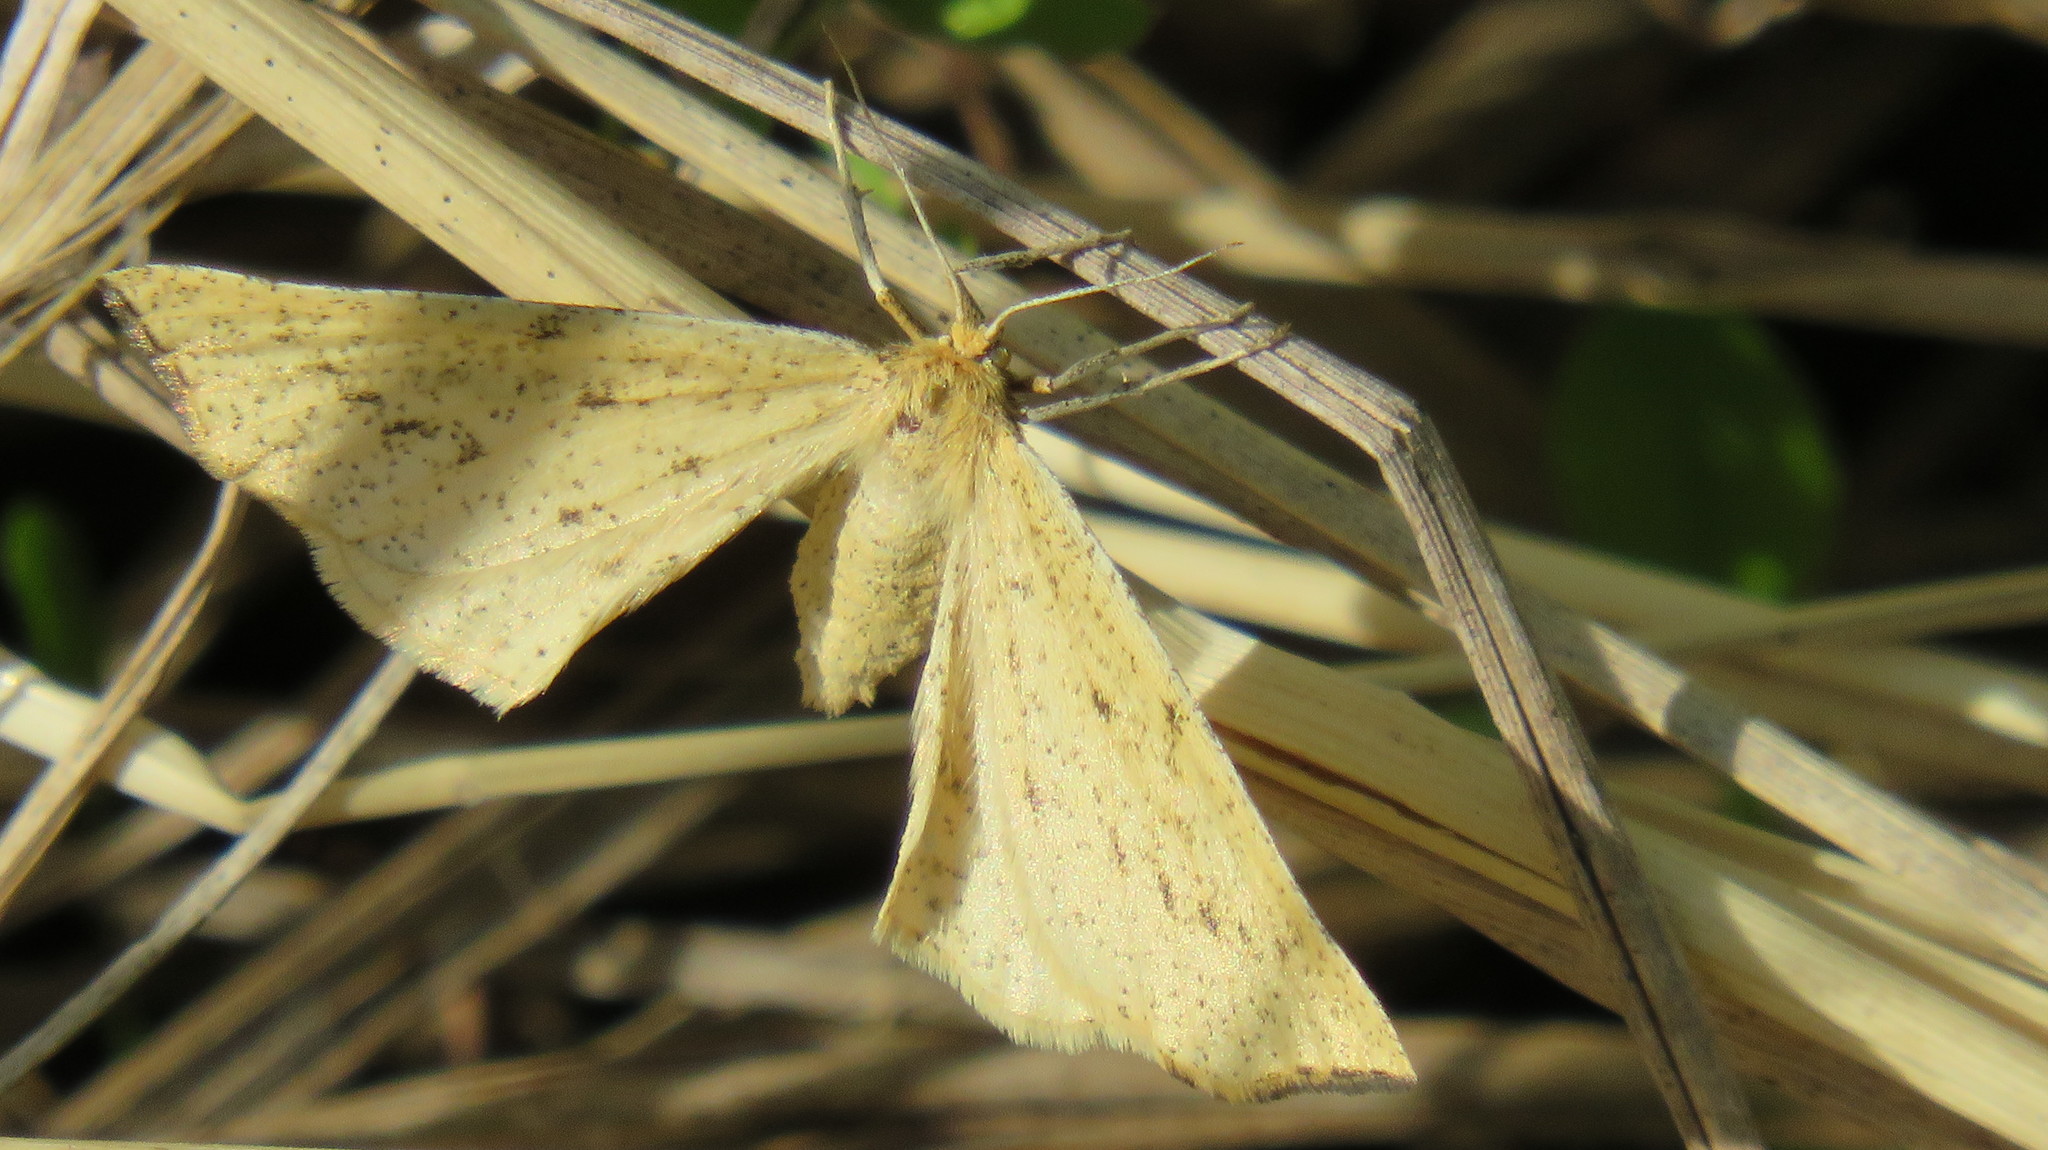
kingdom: Animalia
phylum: Arthropoda
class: Insecta
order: Lepidoptera
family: Geometridae
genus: Hypoxystis
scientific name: Hypoxystis pluviaria
